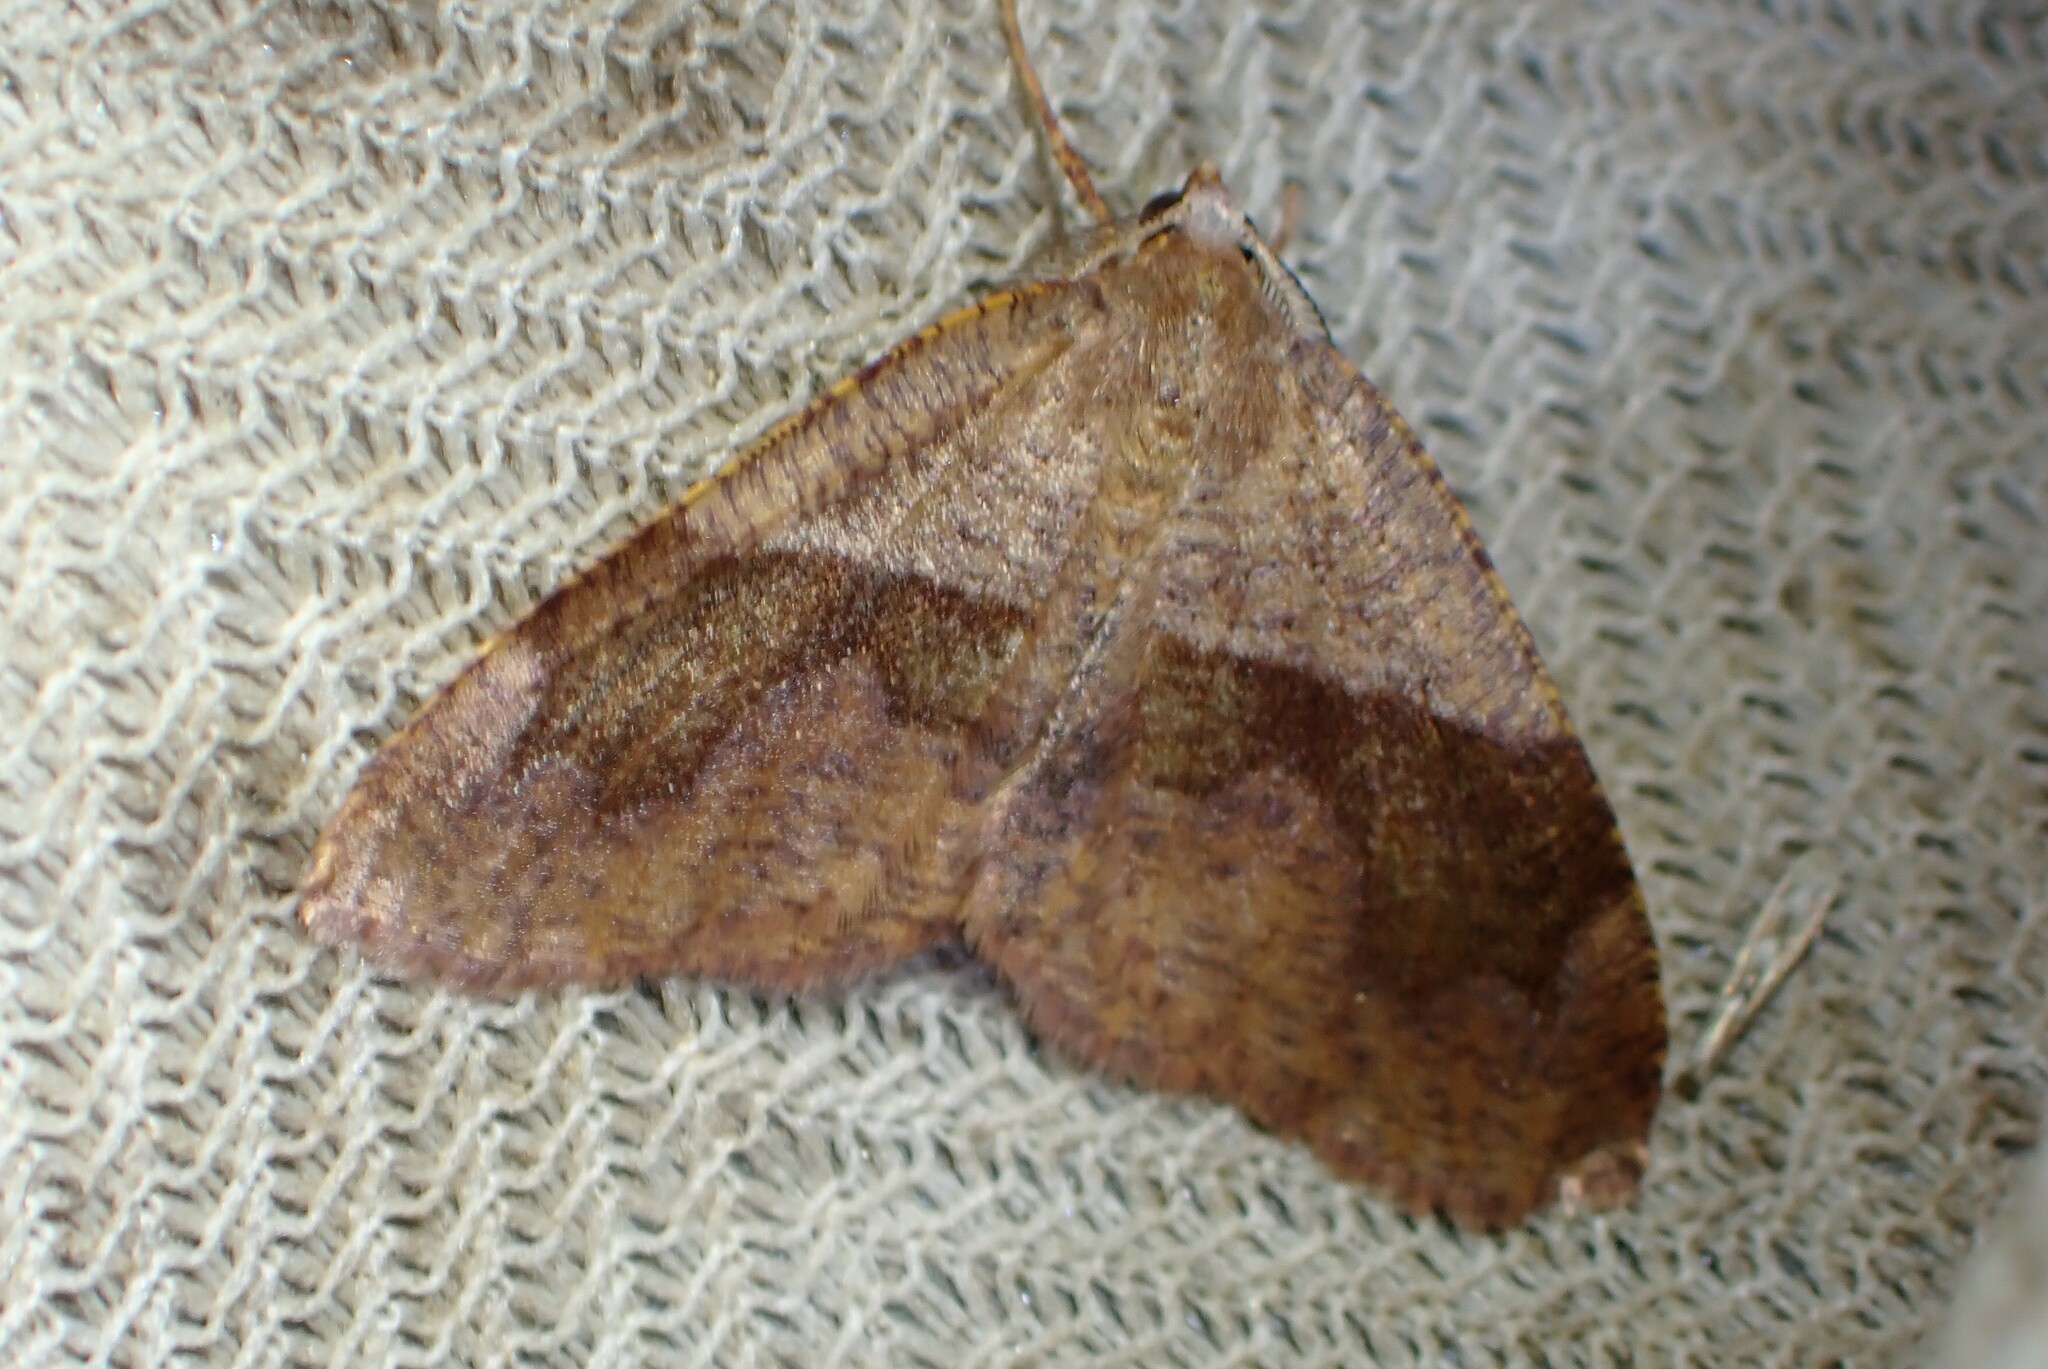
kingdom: Animalia
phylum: Arthropoda
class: Insecta
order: Lepidoptera
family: Geometridae
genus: Plagodis
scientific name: Plagodis pulveraria
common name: Barred umber
